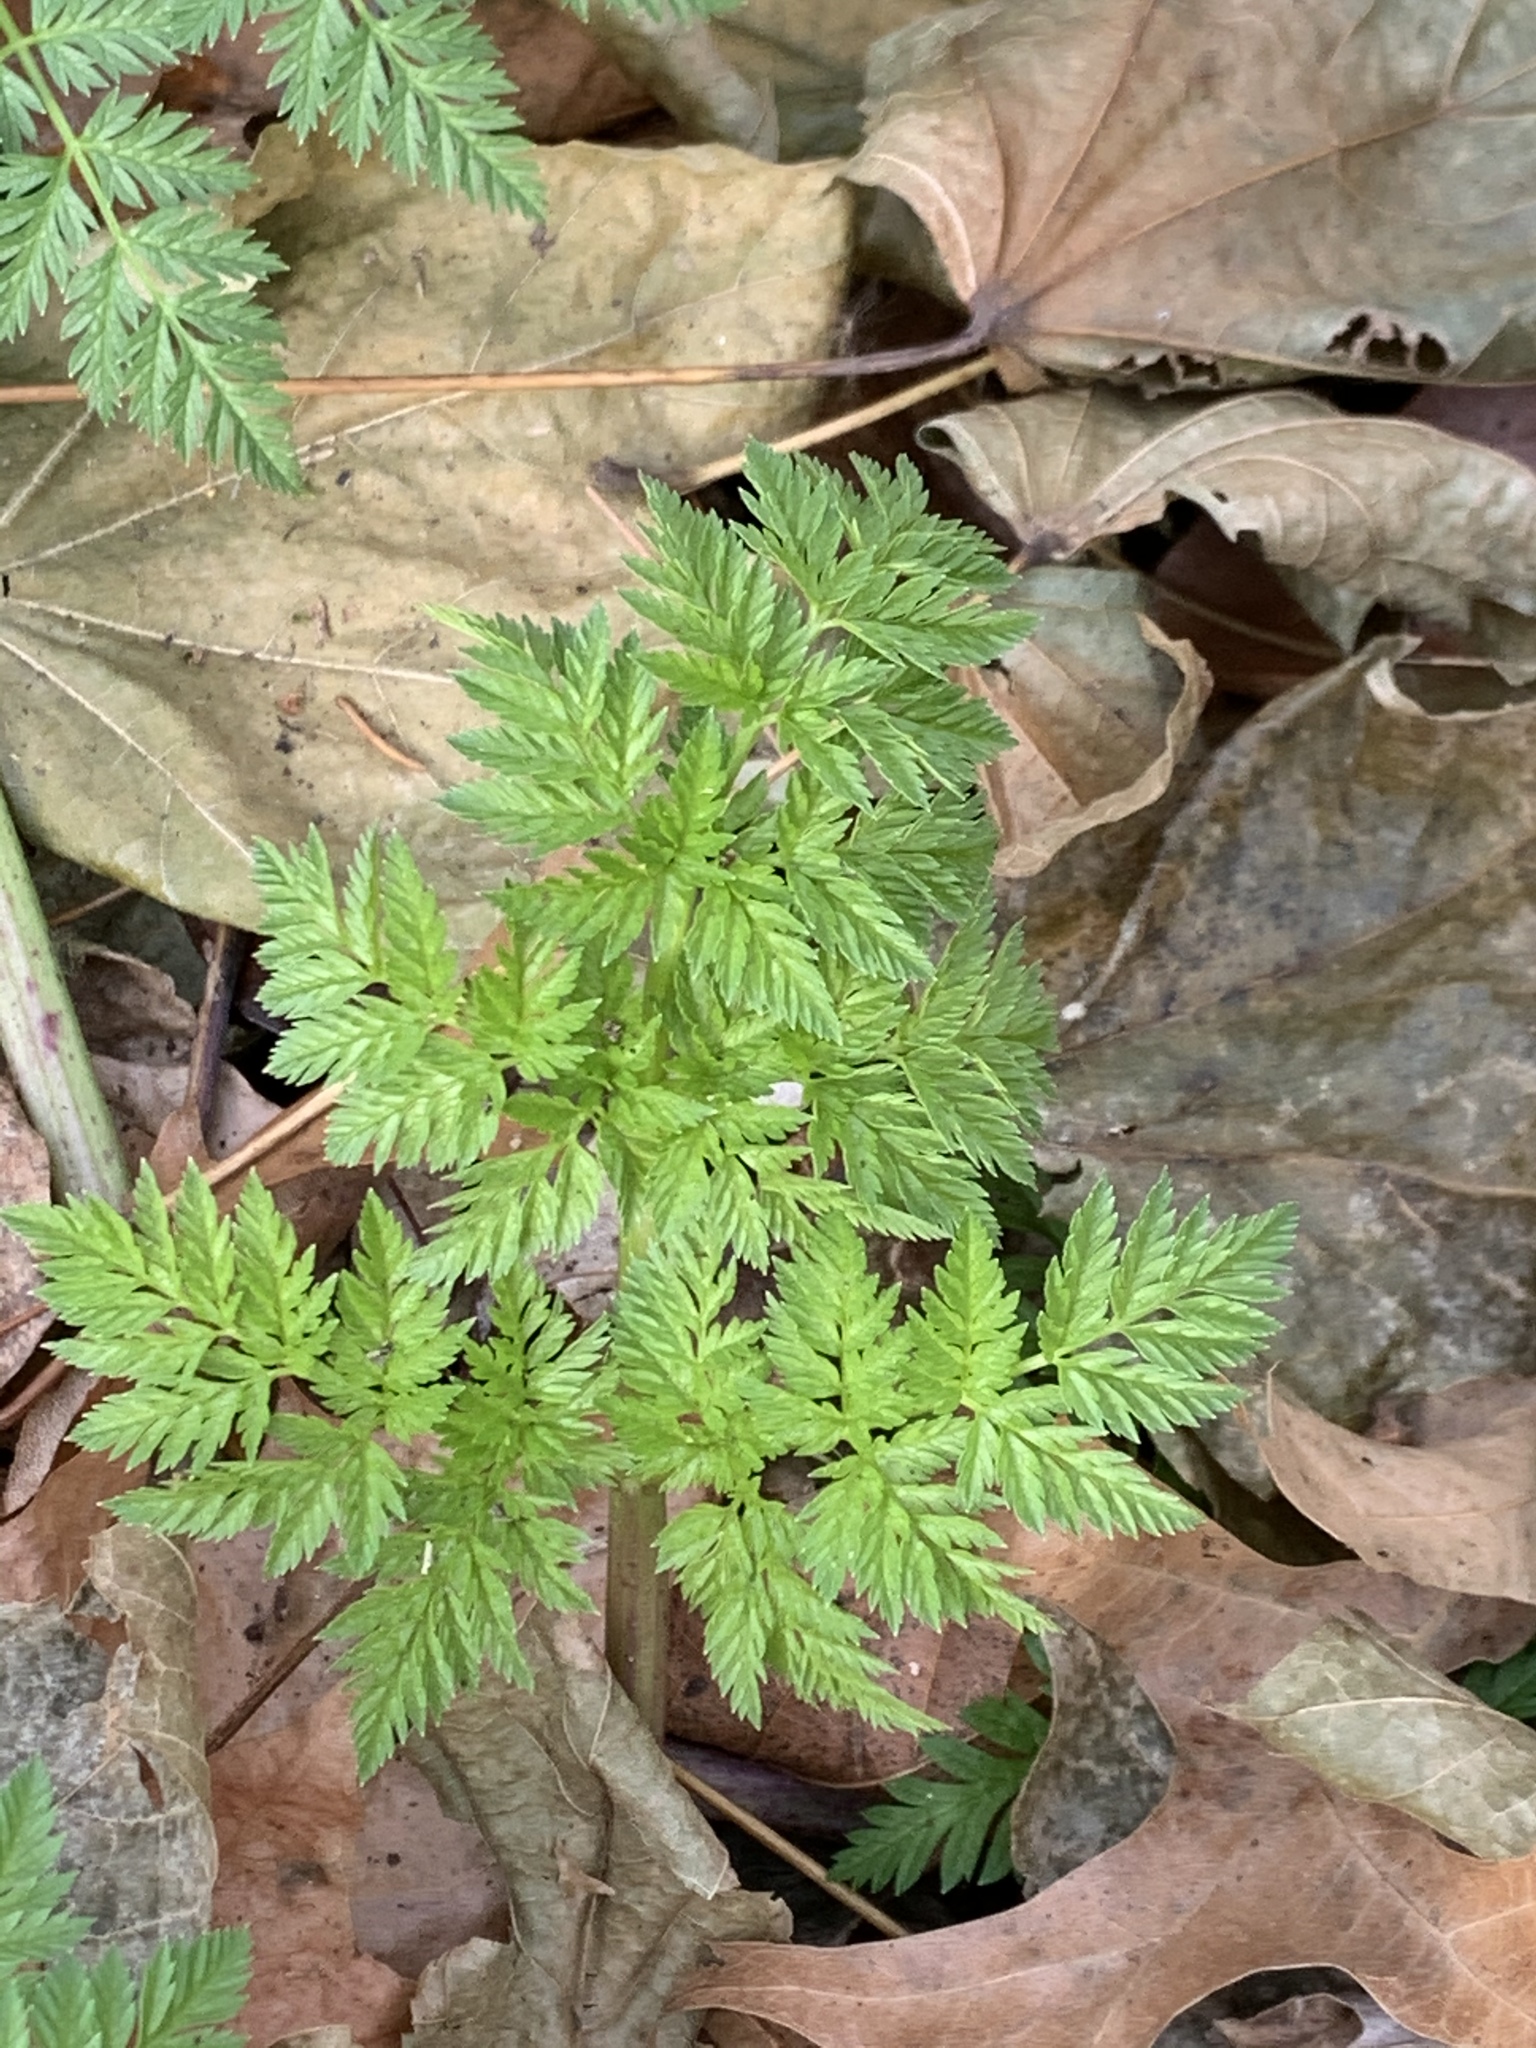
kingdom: Plantae
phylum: Tracheophyta
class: Magnoliopsida
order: Apiales
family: Apiaceae
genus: Conium
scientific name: Conium maculatum
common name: Hemlock
